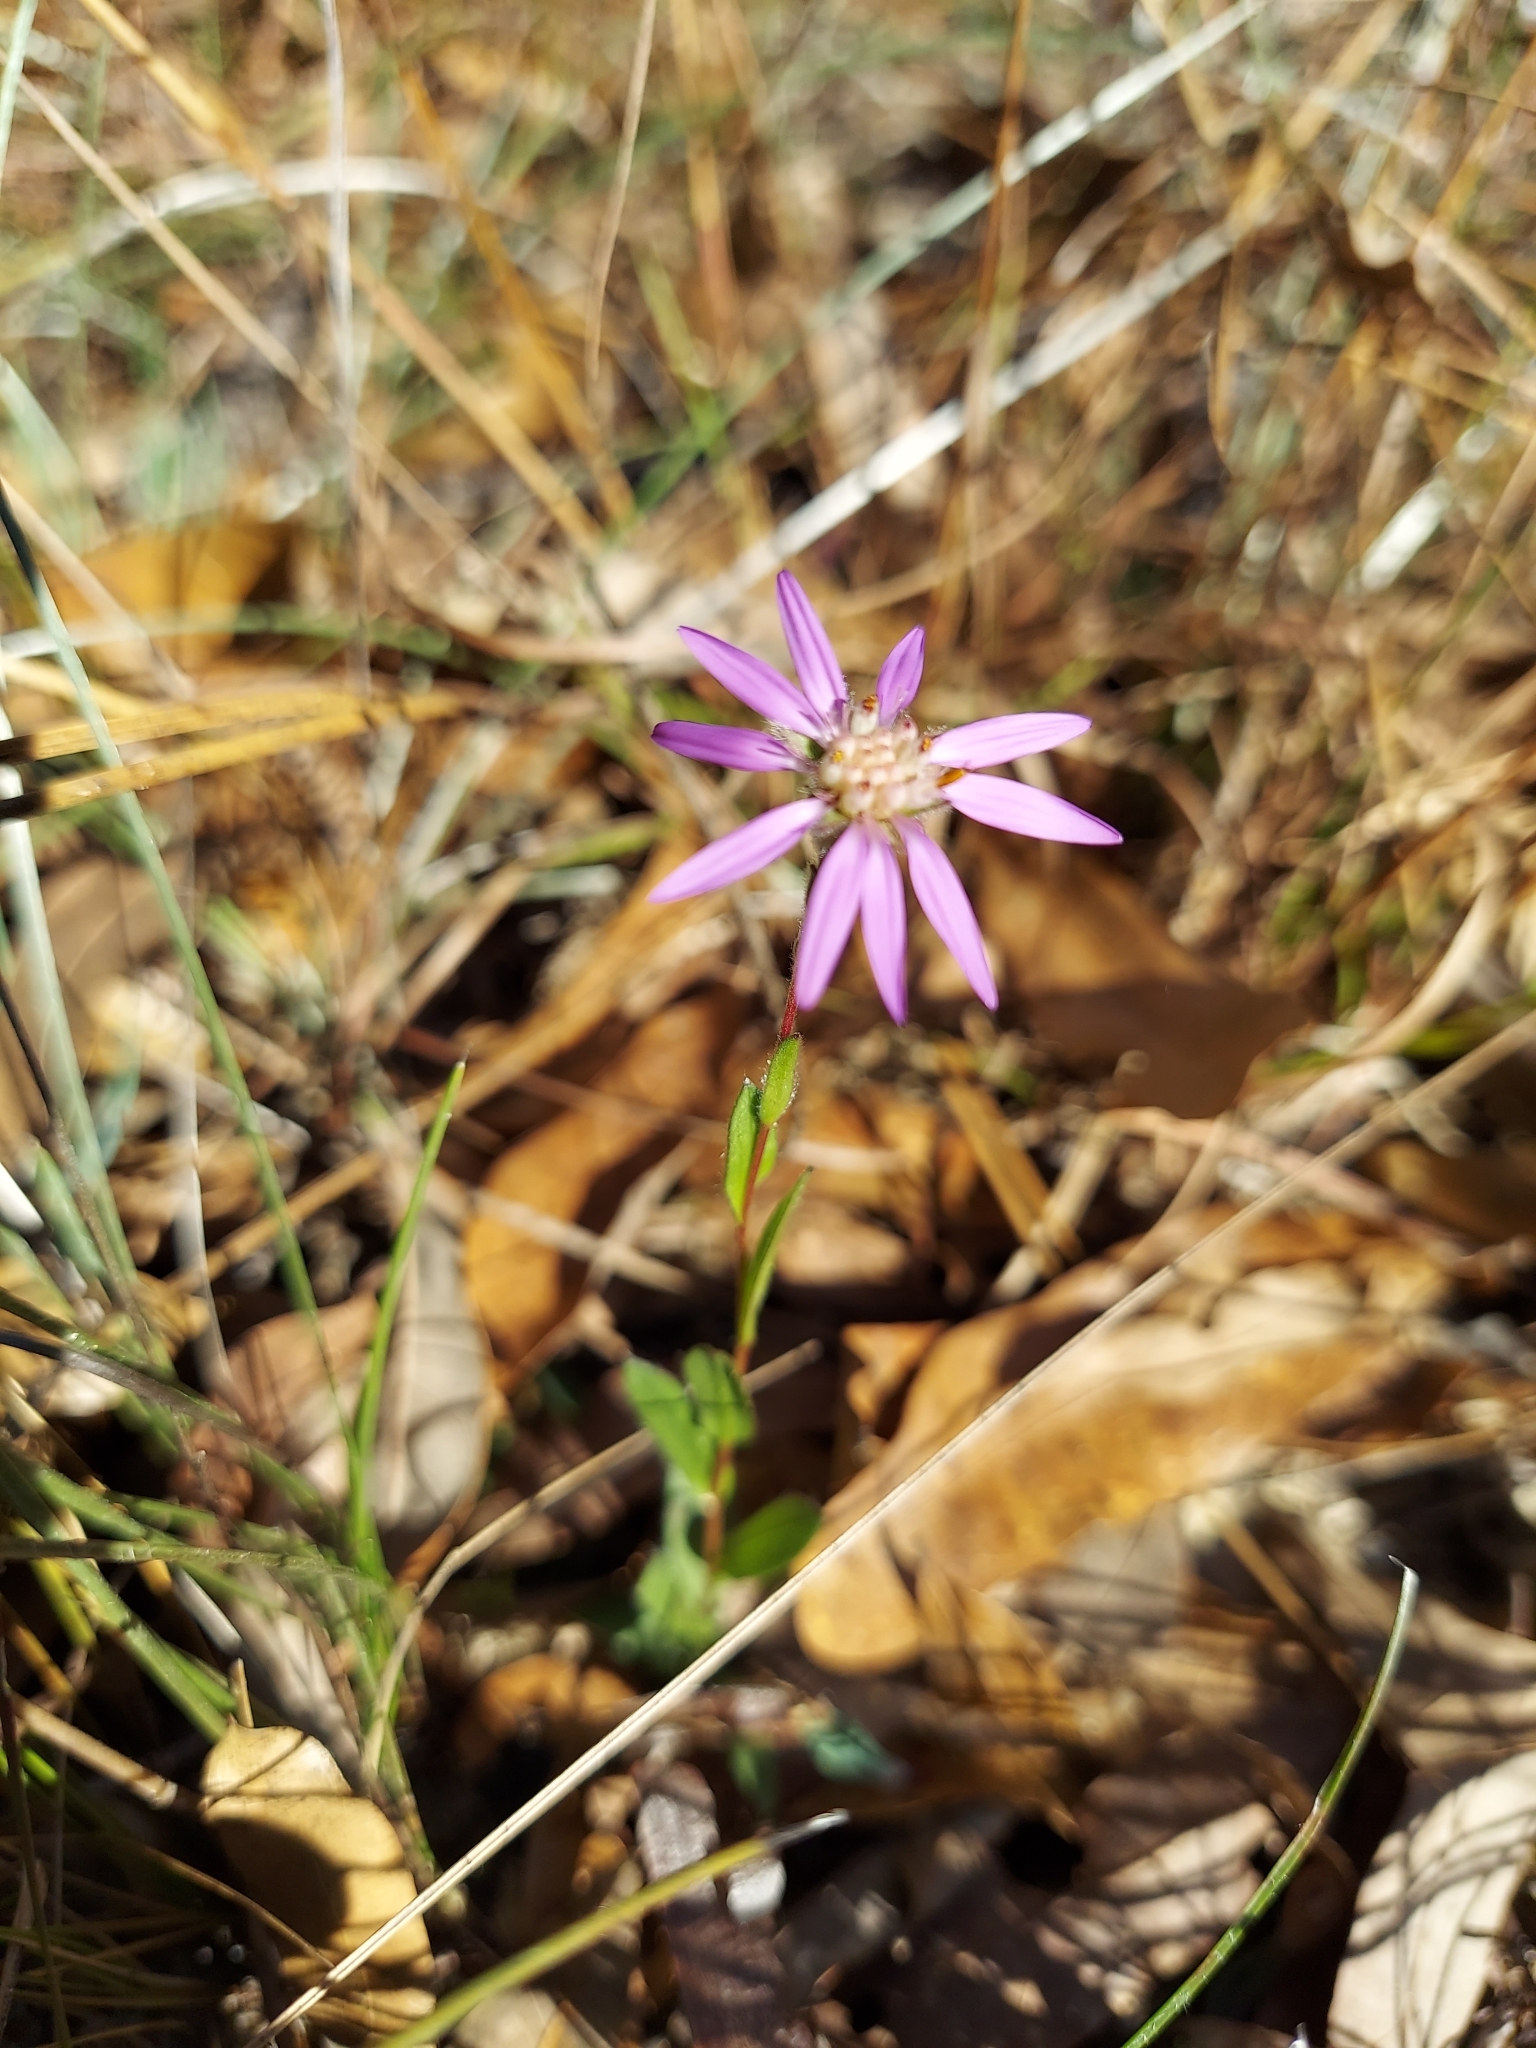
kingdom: Plantae
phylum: Tracheophyta
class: Magnoliopsida
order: Asterales
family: Asteraceae
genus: Symphyotrichum
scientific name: Symphyotrichum concolor
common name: Eastern silver aster
